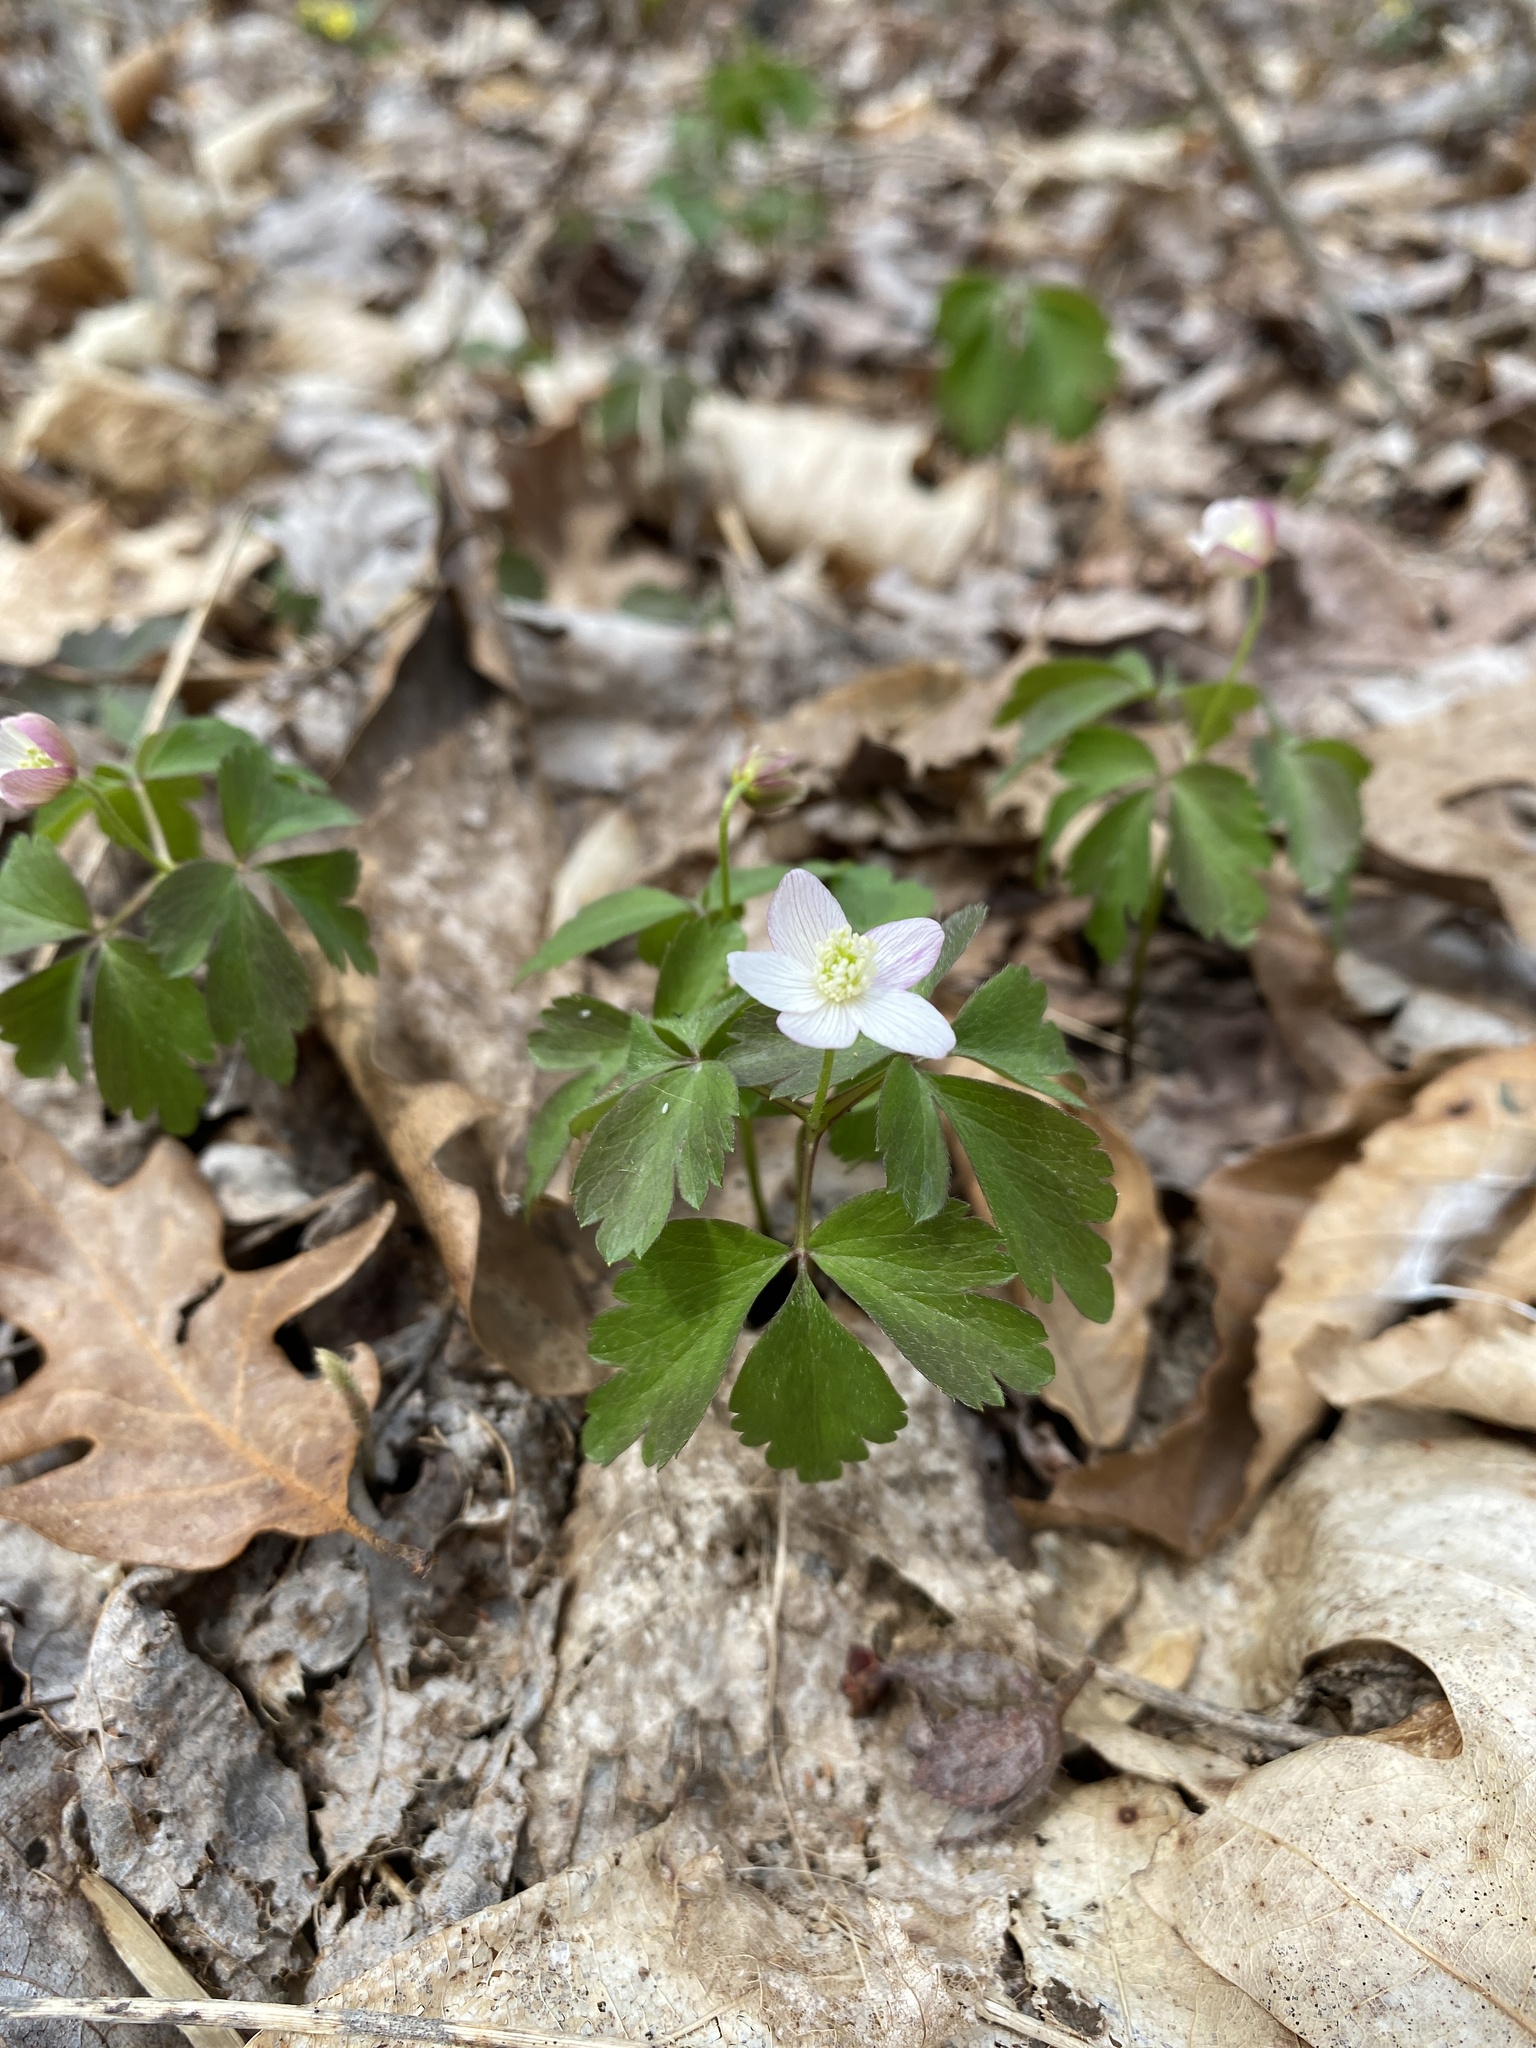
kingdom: Plantae
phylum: Tracheophyta
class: Magnoliopsida
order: Ranunculales
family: Ranunculaceae
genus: Anemone
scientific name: Anemone quinquefolia
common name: Wood anemone
